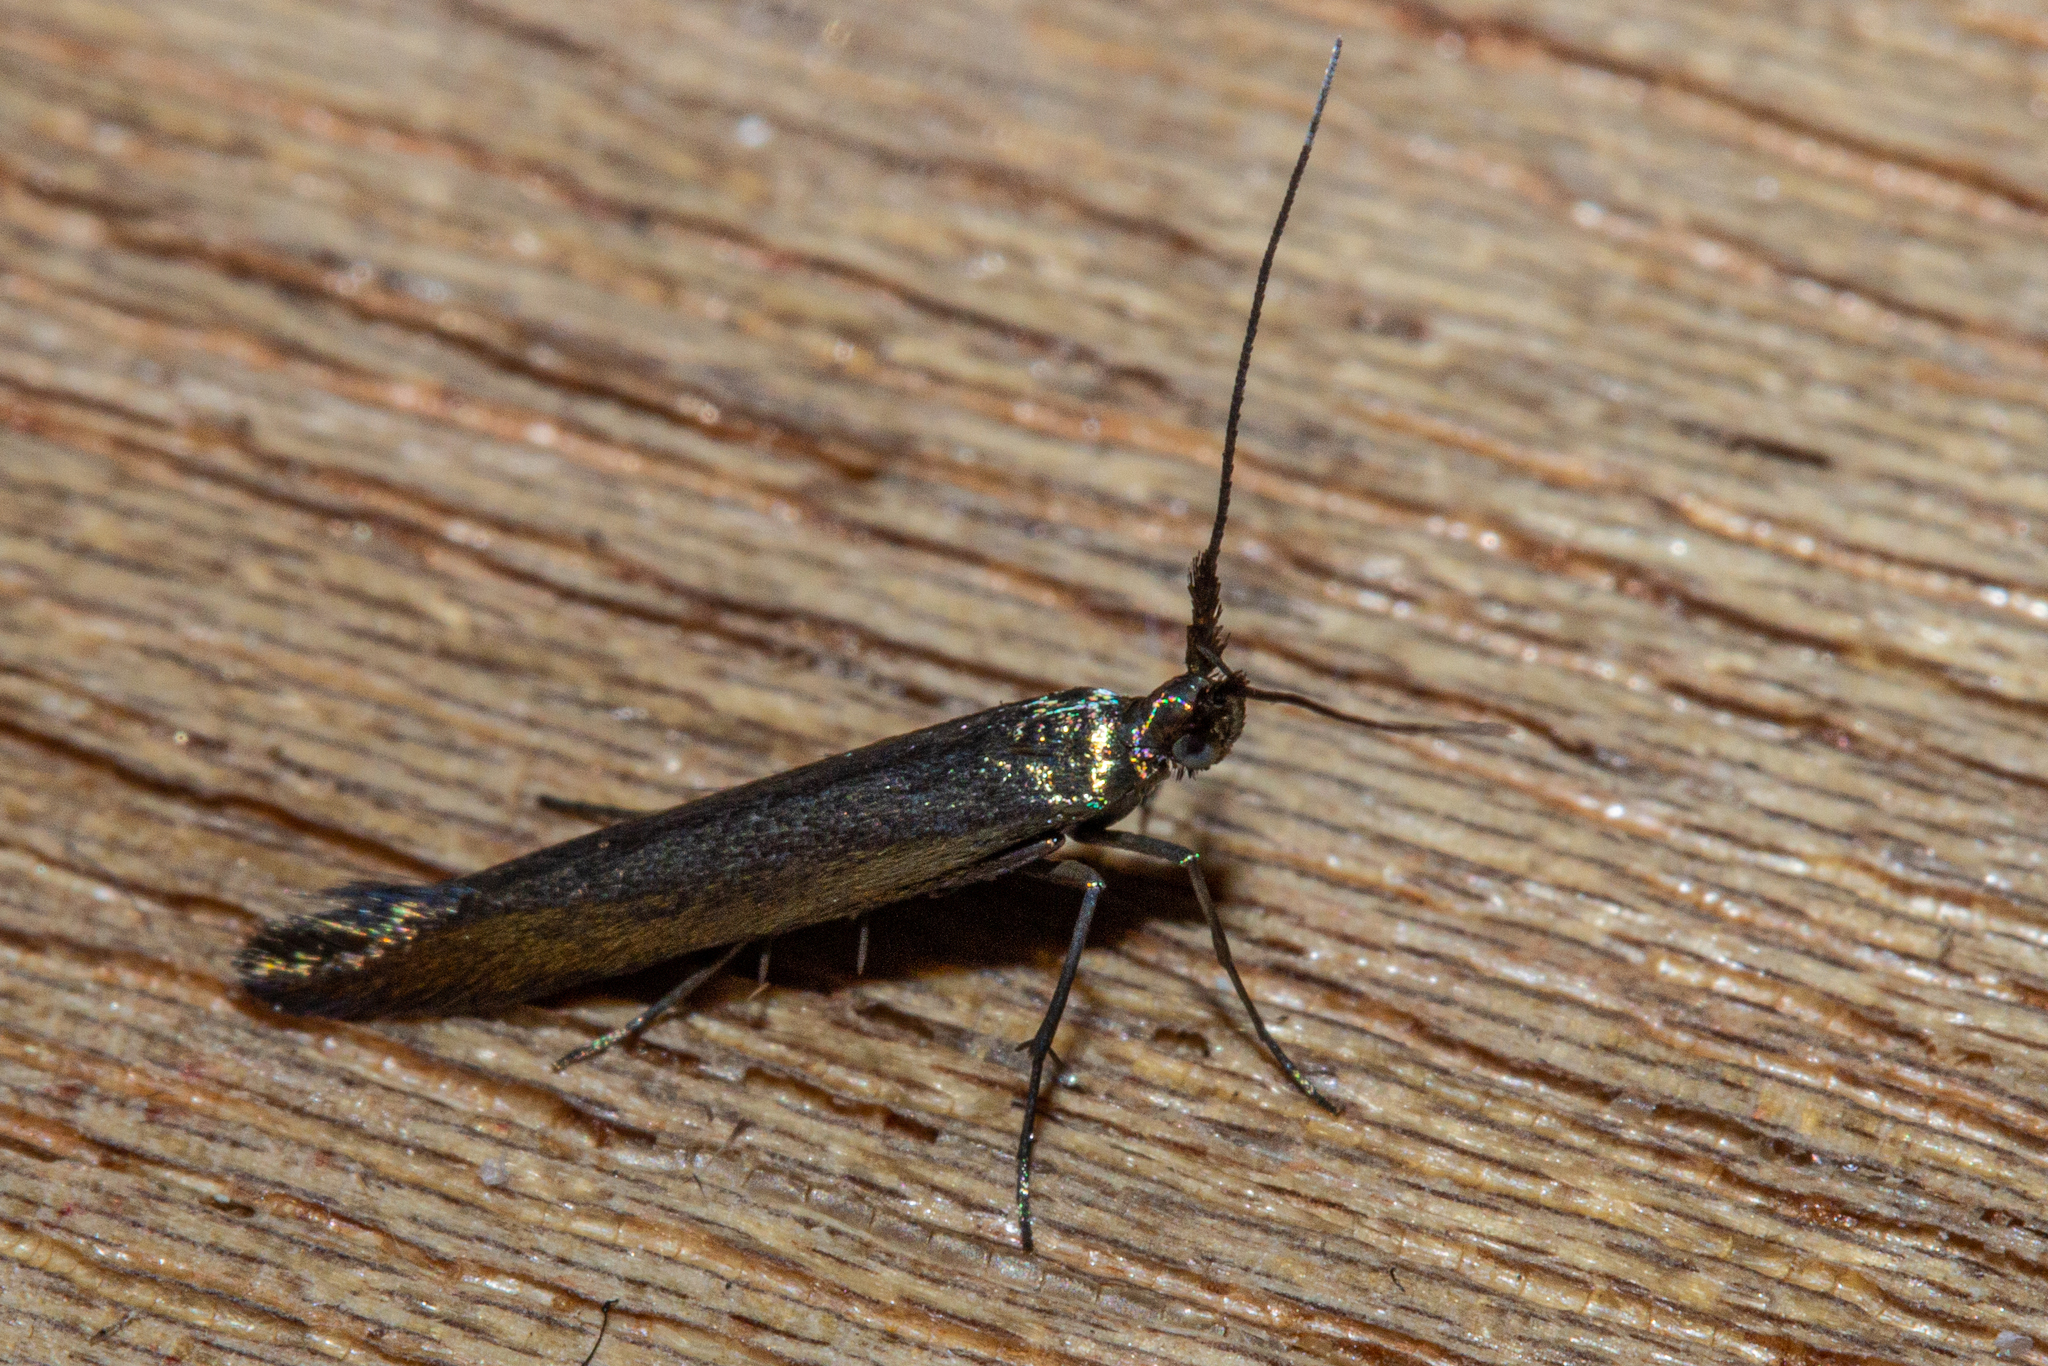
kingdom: Animalia
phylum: Arthropoda
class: Insecta
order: Lepidoptera
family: Coleophoridae
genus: Coleophora
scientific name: Coleophora alcyonipennella
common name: Clover case-bearer
